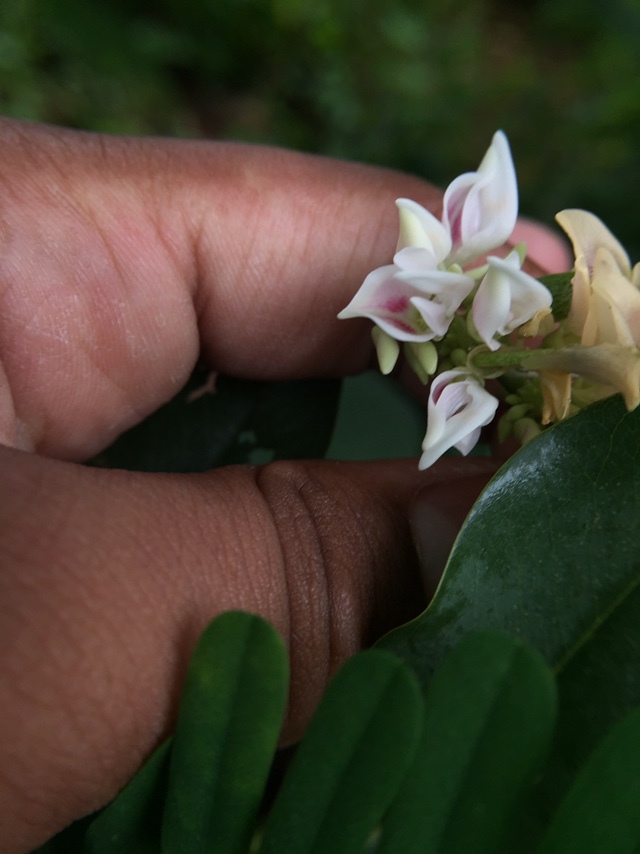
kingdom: Plantae
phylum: Tracheophyta
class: Magnoliopsida
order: Fabales
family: Fabaceae
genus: Abrus
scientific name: Abrus precatorius
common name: Rosarypea
